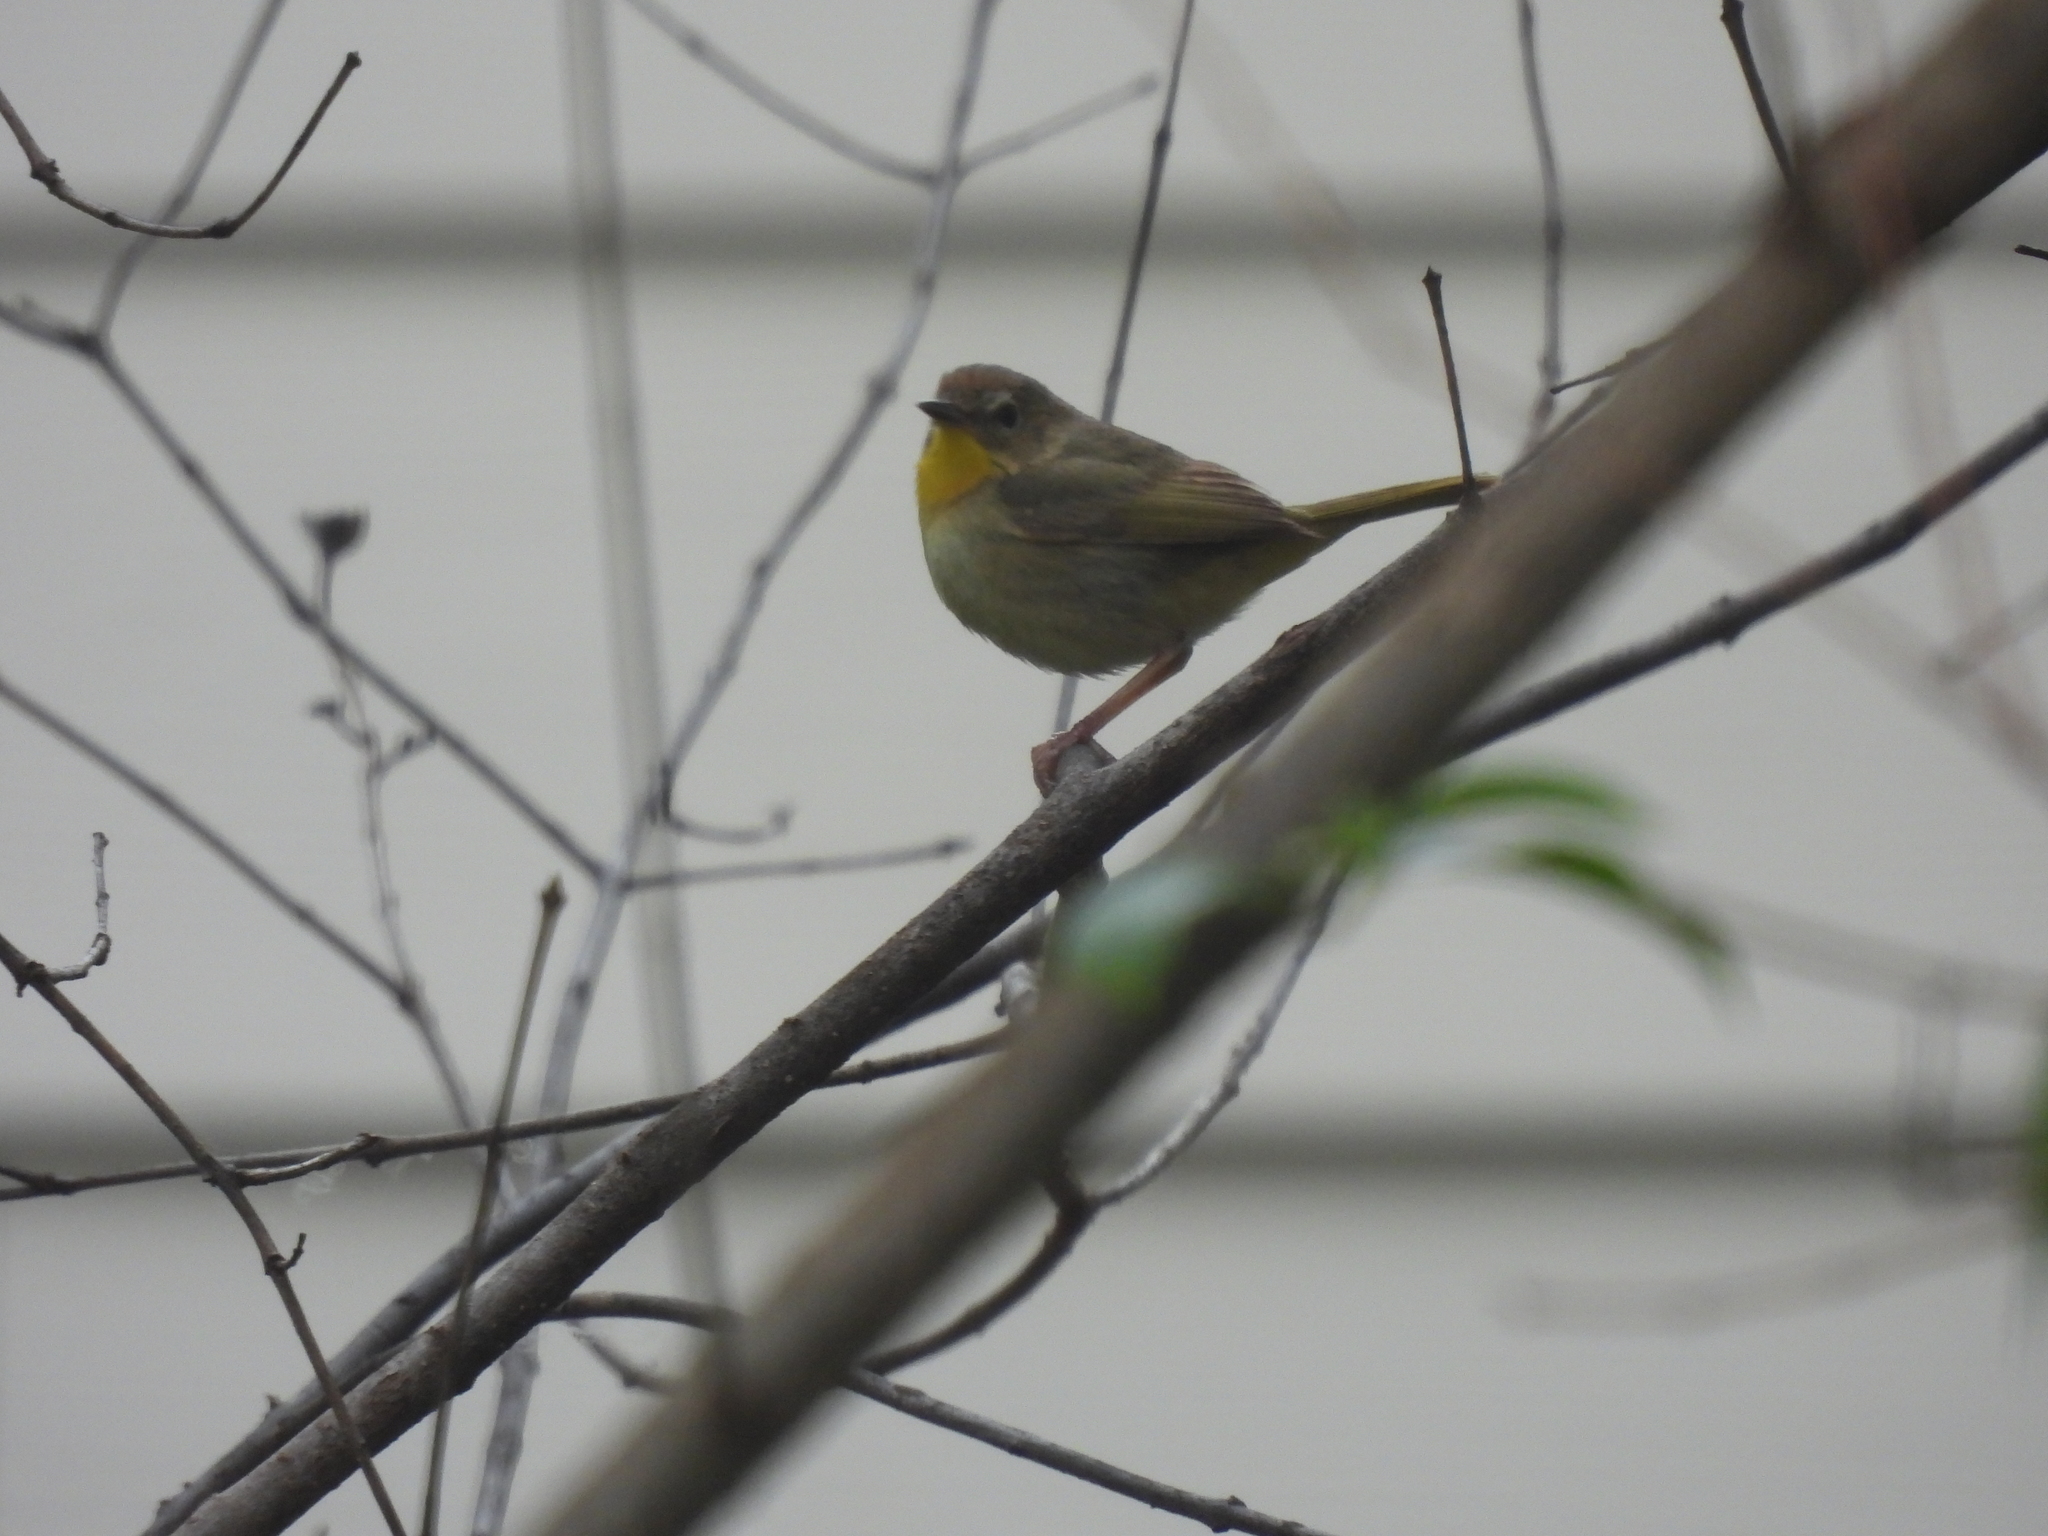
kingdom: Animalia
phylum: Chordata
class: Aves
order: Passeriformes
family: Parulidae
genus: Geothlypis
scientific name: Geothlypis trichas
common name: Common yellowthroat
